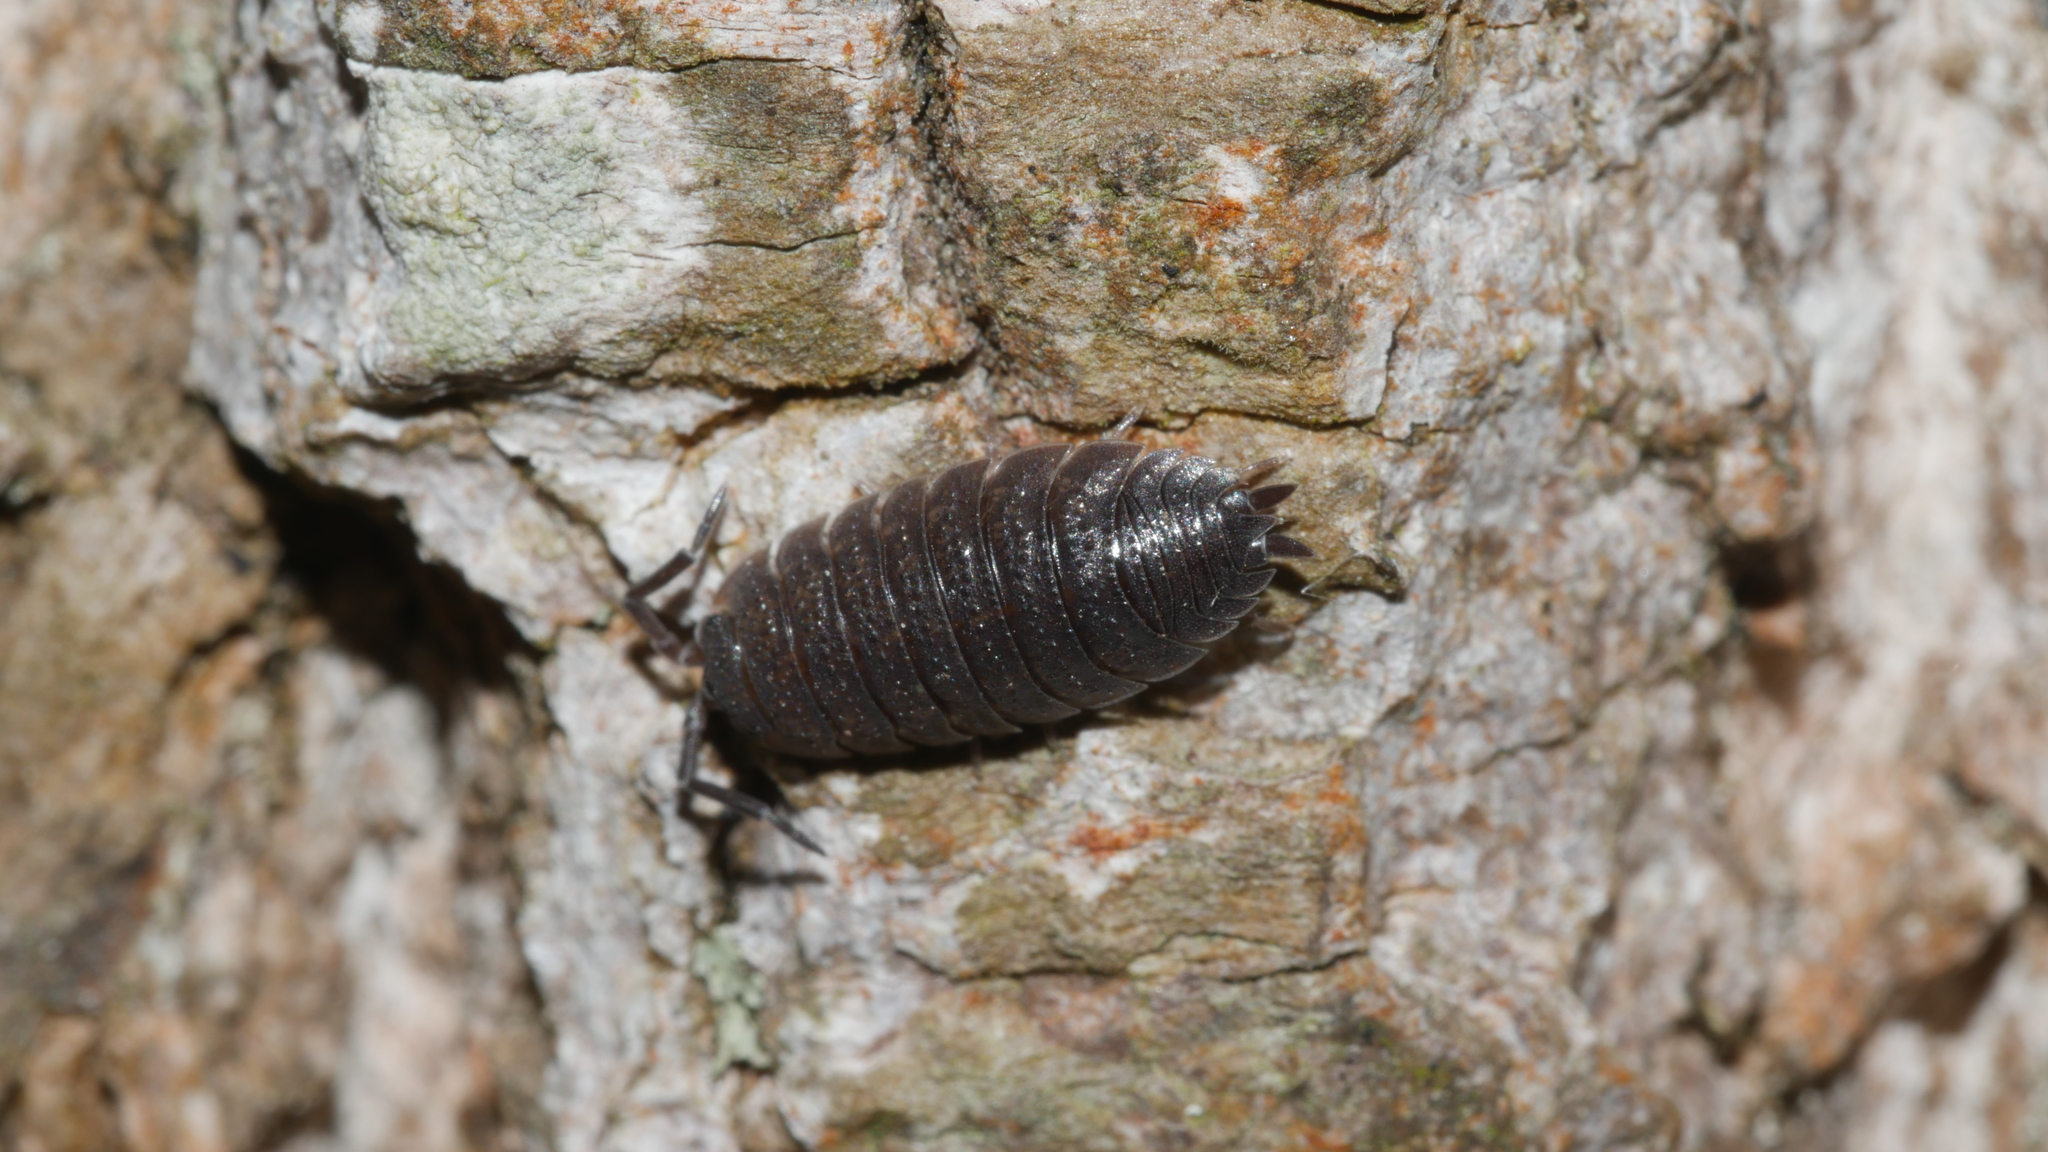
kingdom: Animalia
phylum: Arthropoda
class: Malacostraca
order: Isopoda
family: Porcellionidae
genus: Porcellio
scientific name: Porcellio scaber
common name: Common rough woodlouse
